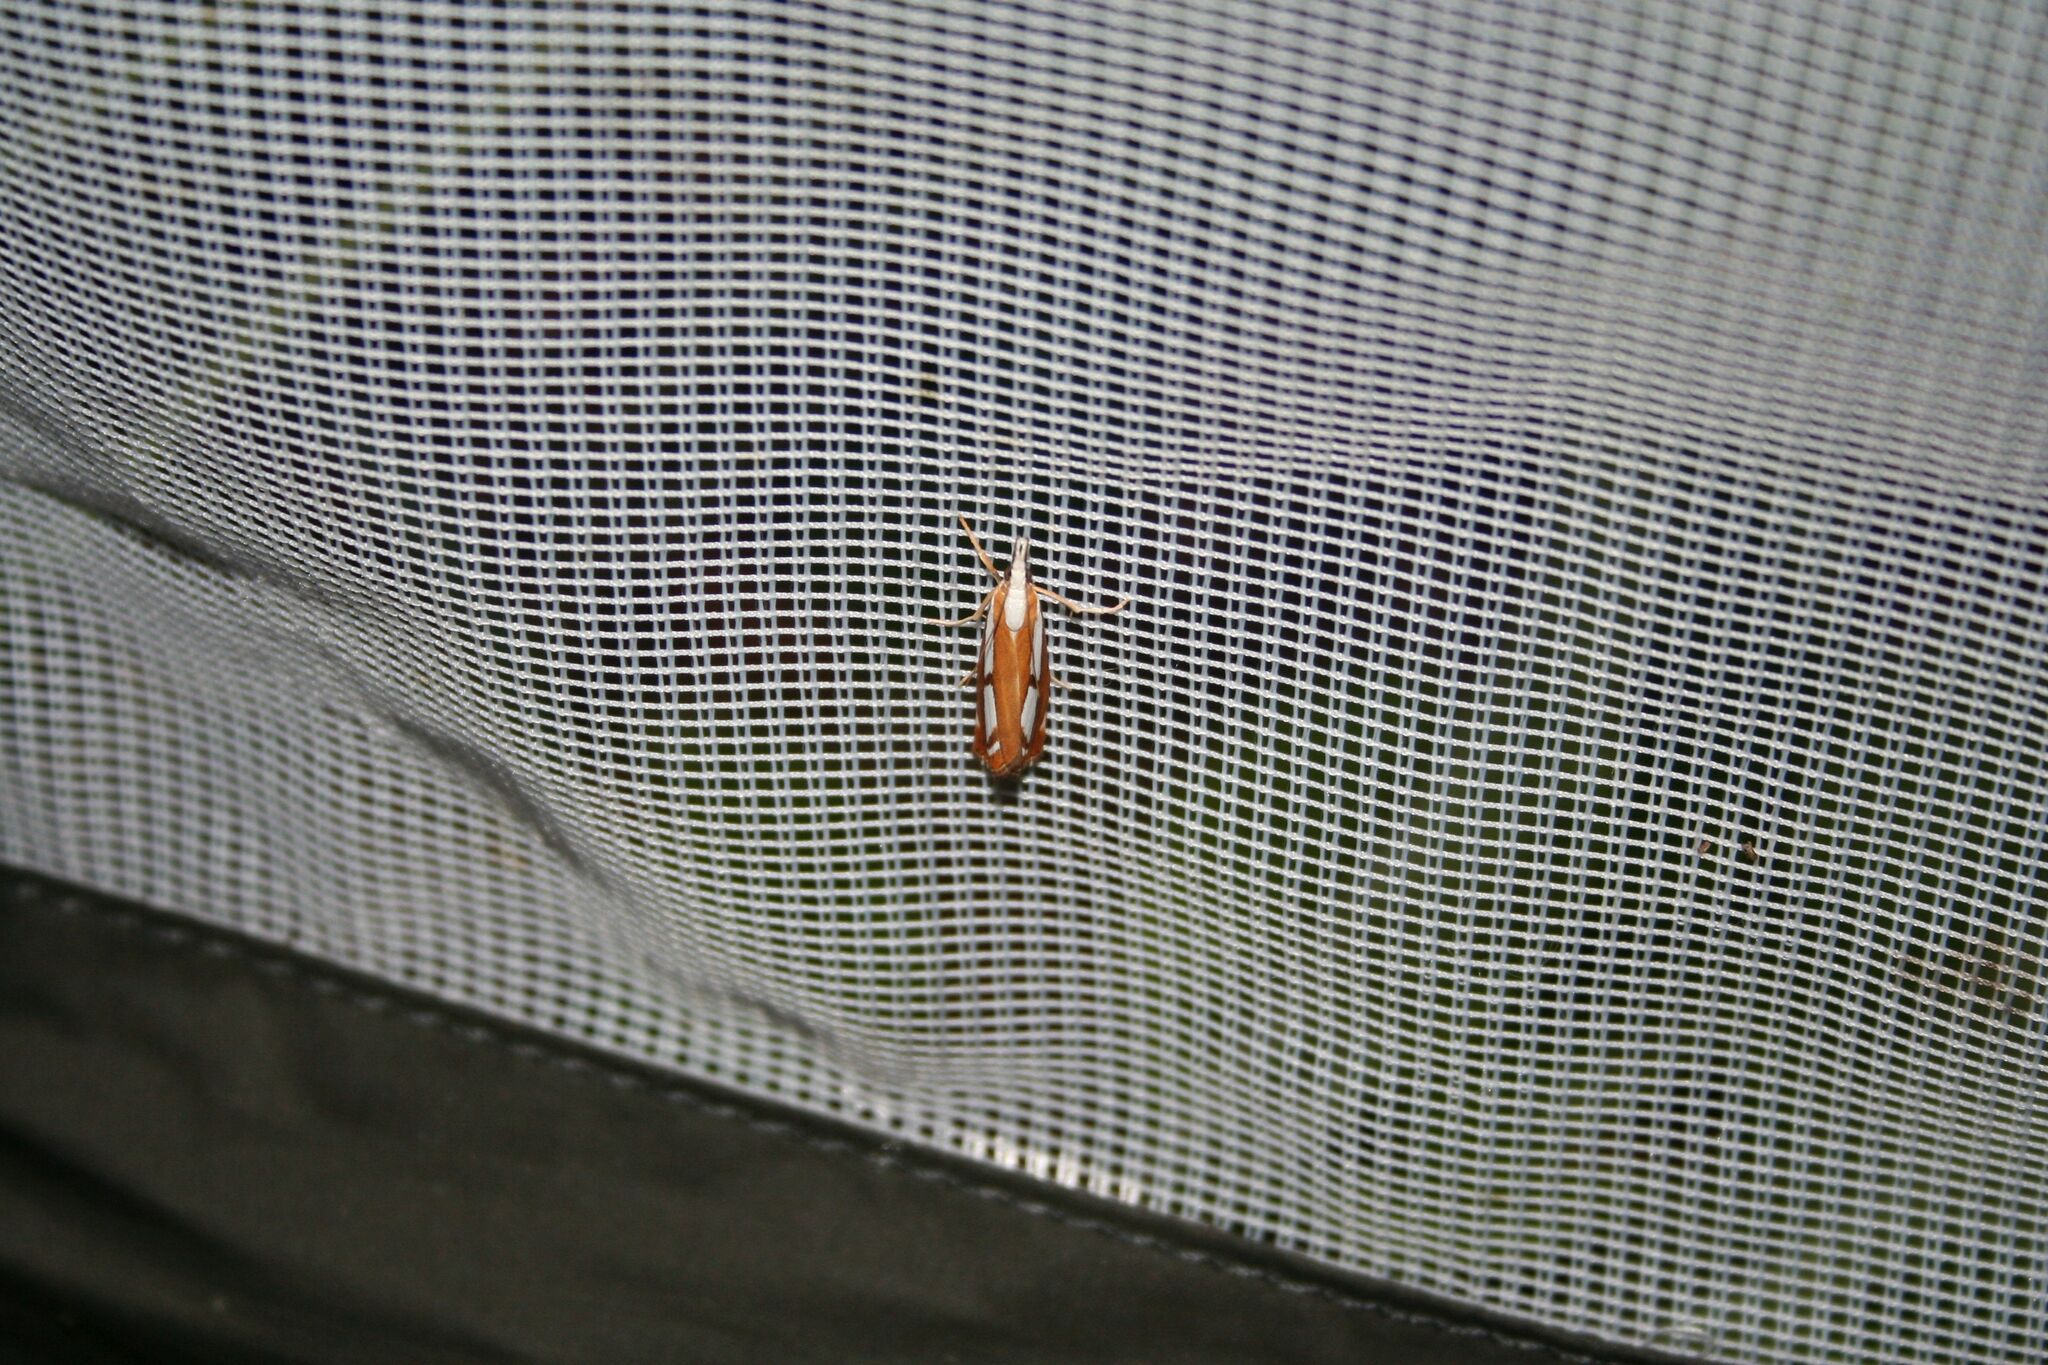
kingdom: Animalia
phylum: Arthropoda
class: Insecta
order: Lepidoptera
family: Crambidae
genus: Catoptria
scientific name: Catoptria
